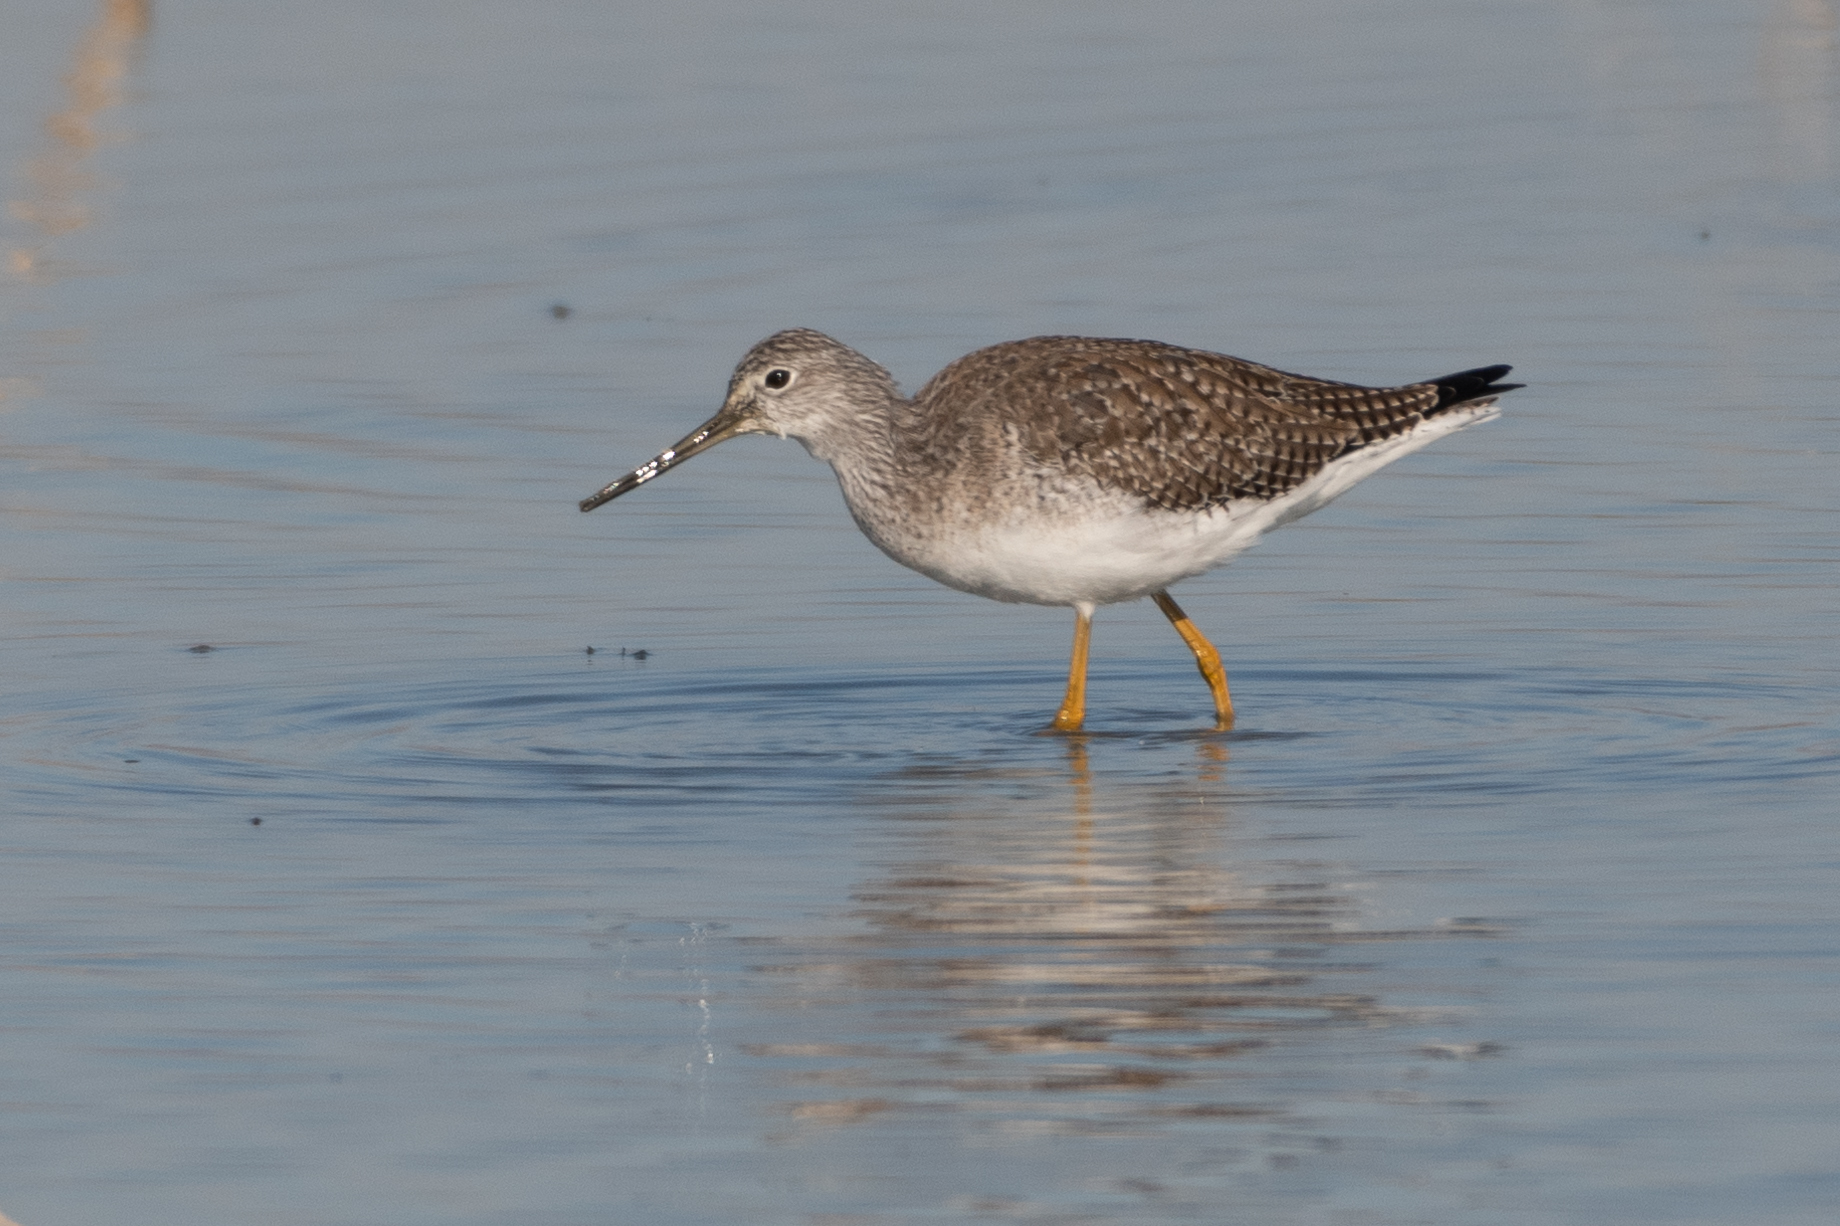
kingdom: Animalia
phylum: Chordata
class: Aves
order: Charadriiformes
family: Scolopacidae
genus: Tringa
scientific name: Tringa melanoleuca
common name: Greater yellowlegs
